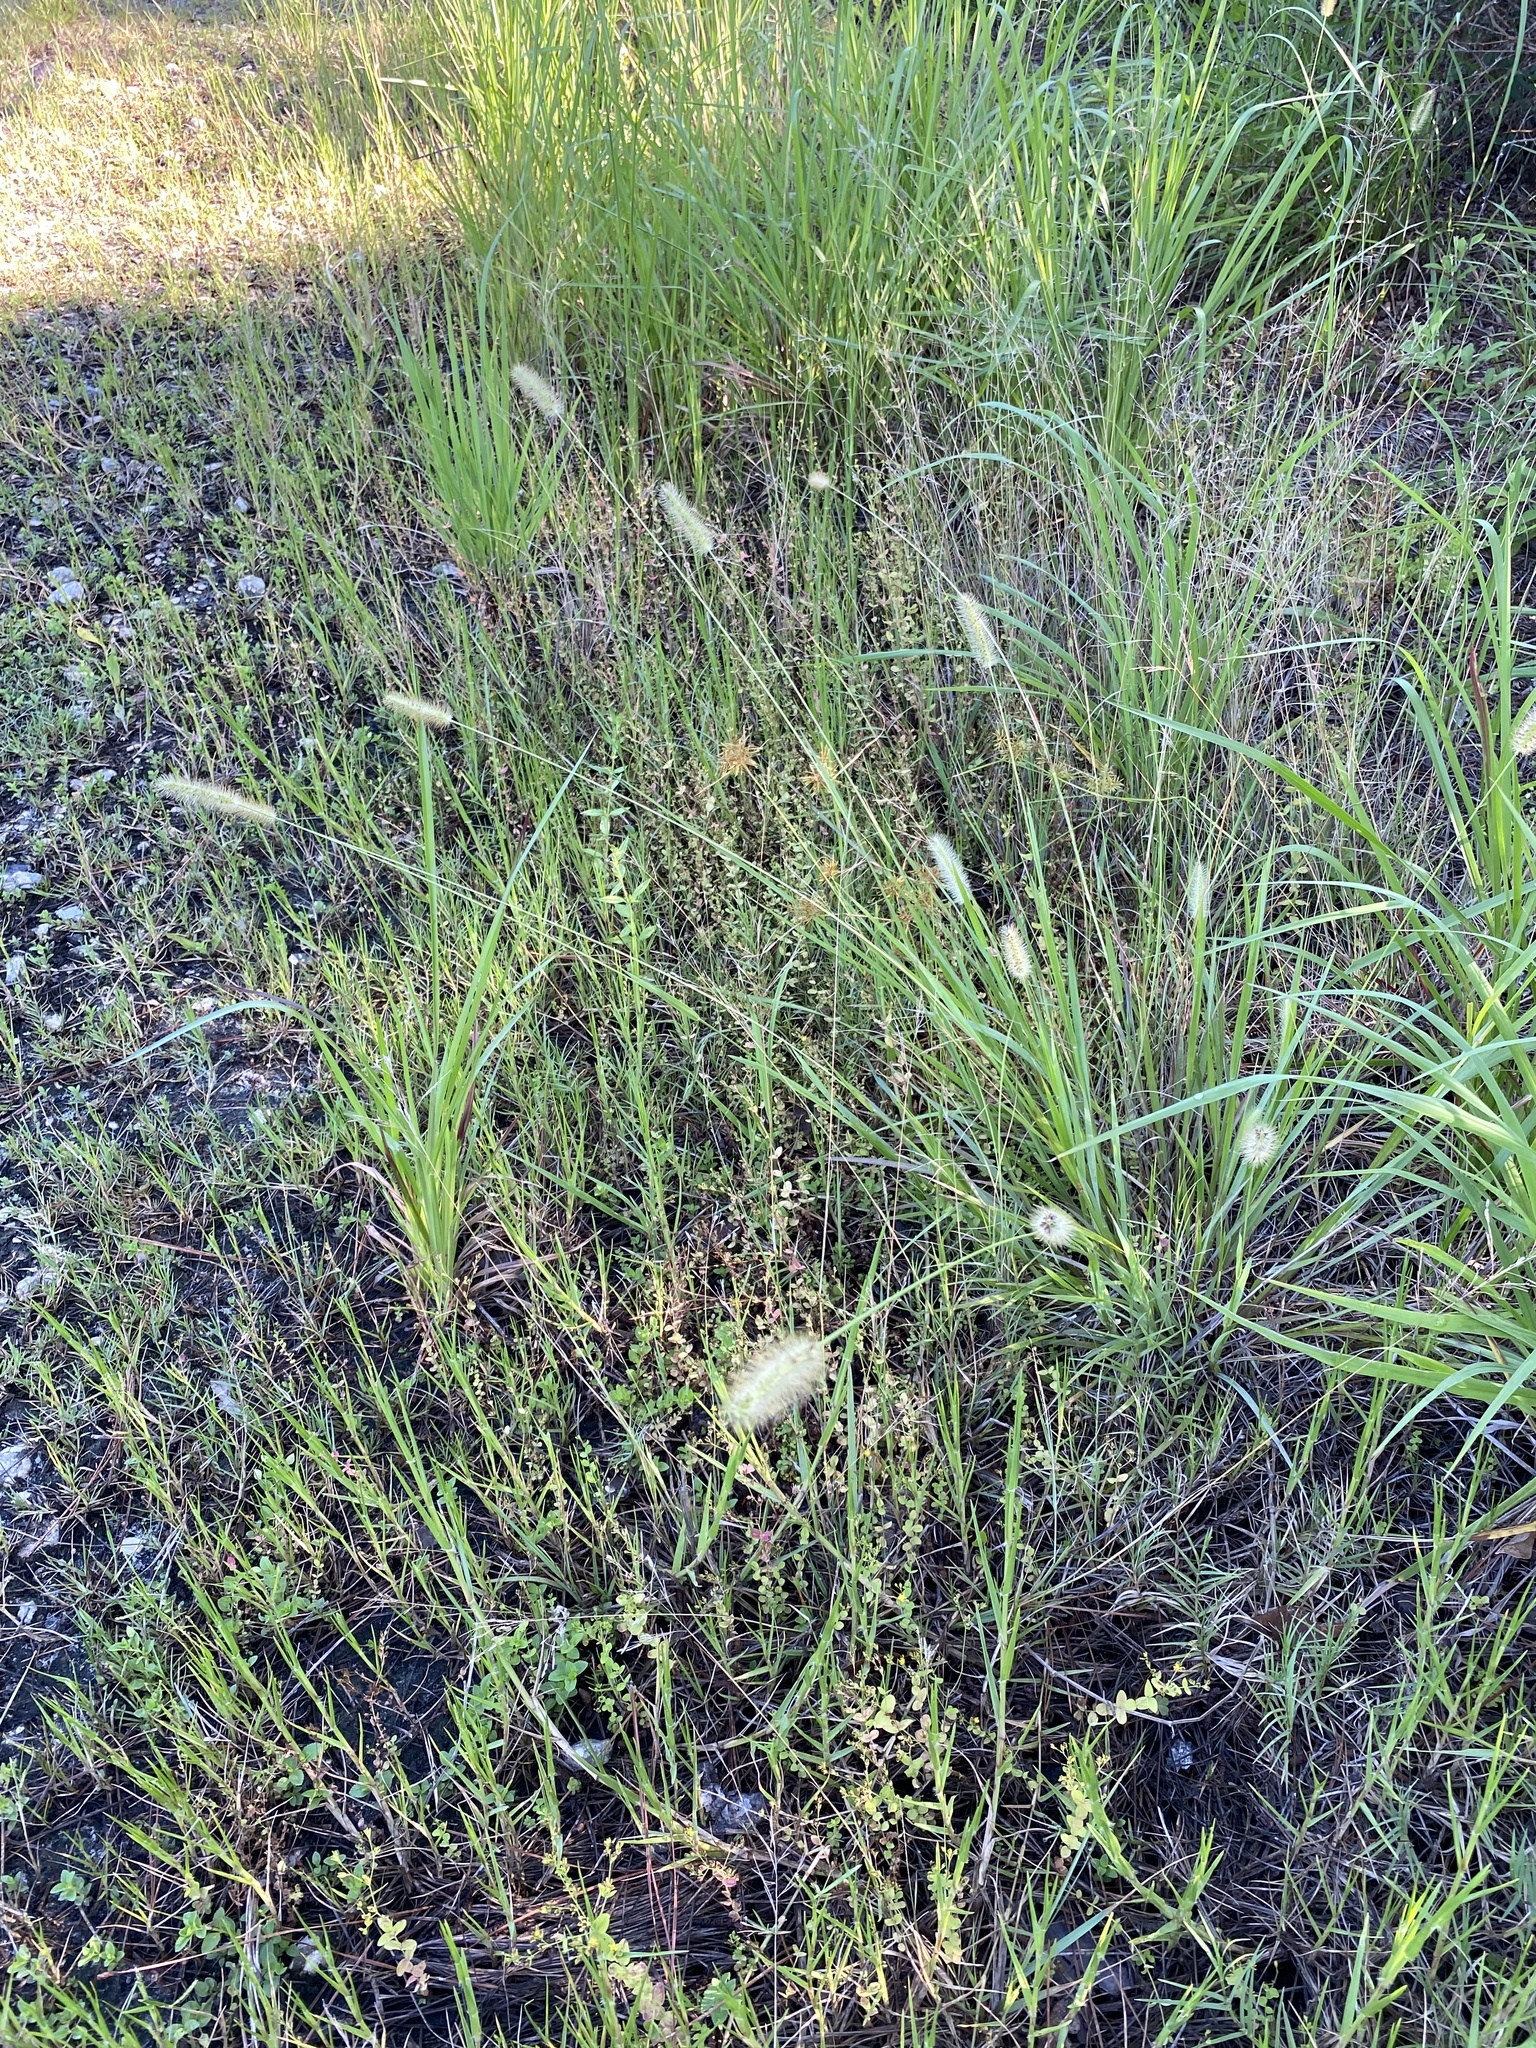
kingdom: Plantae
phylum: Tracheophyta
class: Liliopsida
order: Poales
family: Poaceae
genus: Setaria
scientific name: Setaria parviflora
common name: Knotroot bristle-grass
